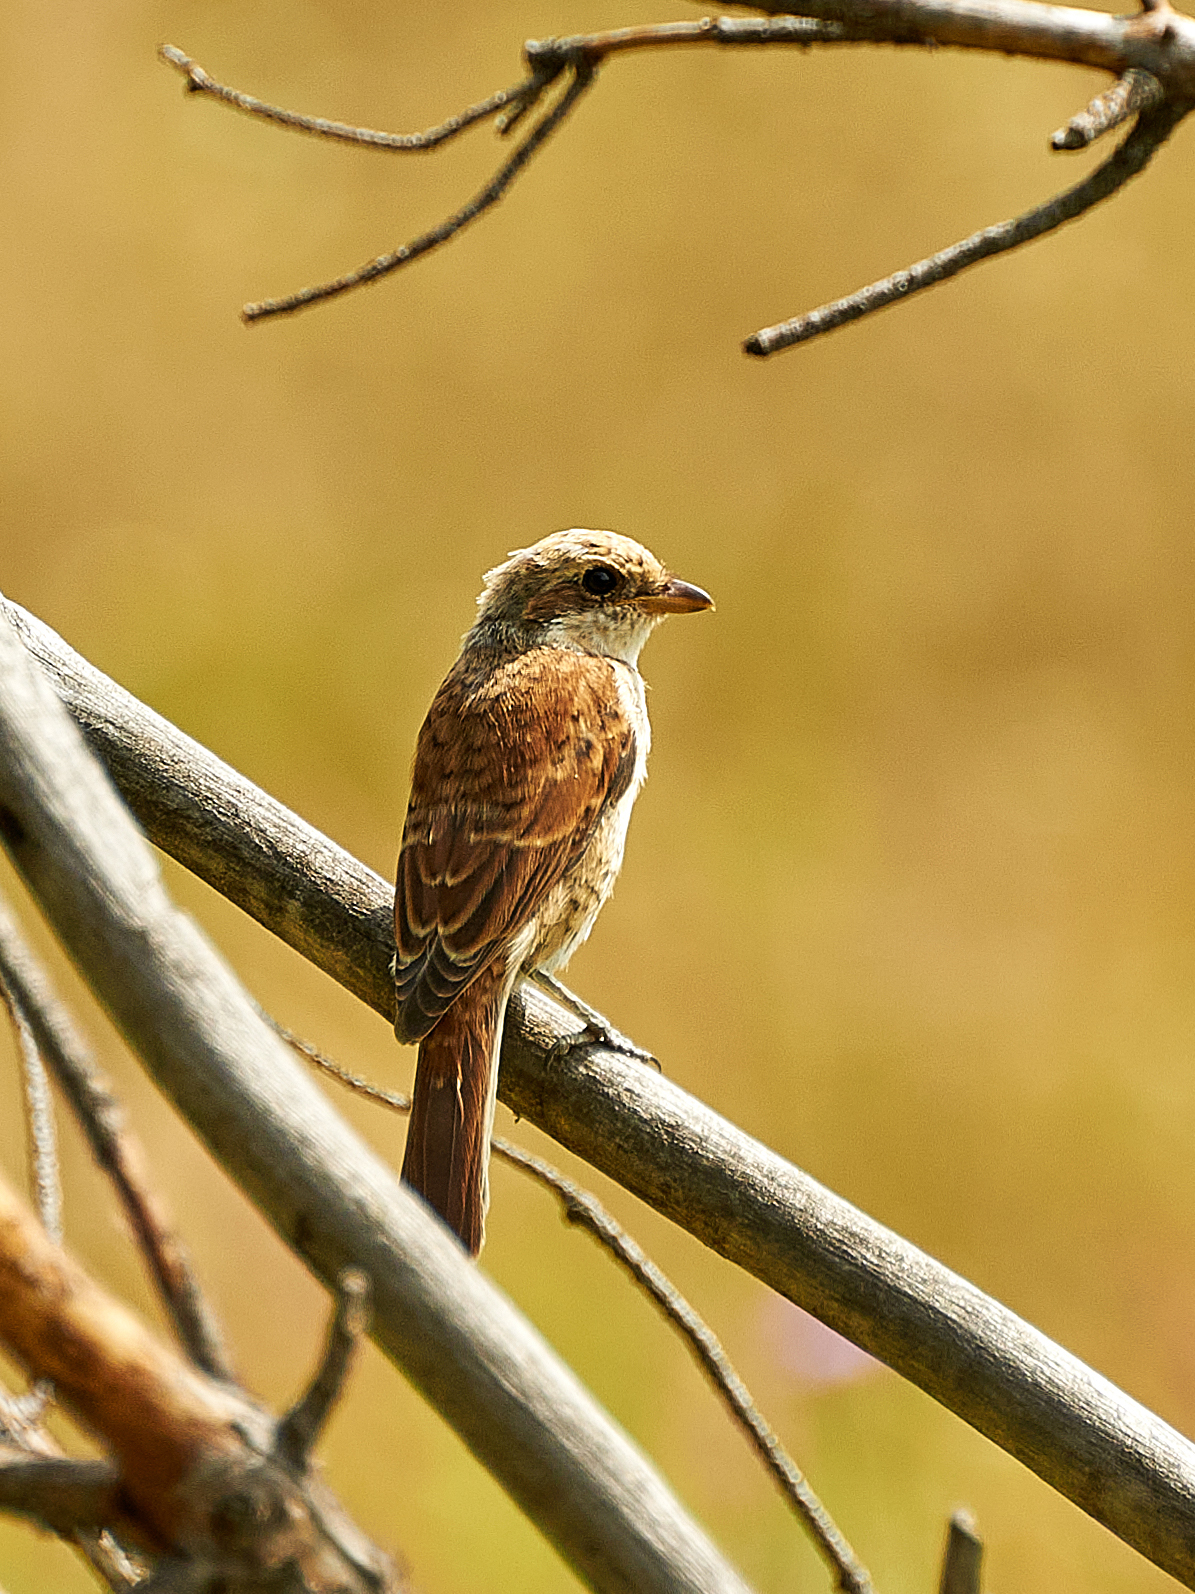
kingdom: Animalia
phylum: Chordata
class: Aves
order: Passeriformes
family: Laniidae
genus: Lanius
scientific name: Lanius collurio
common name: Red-backed shrike
